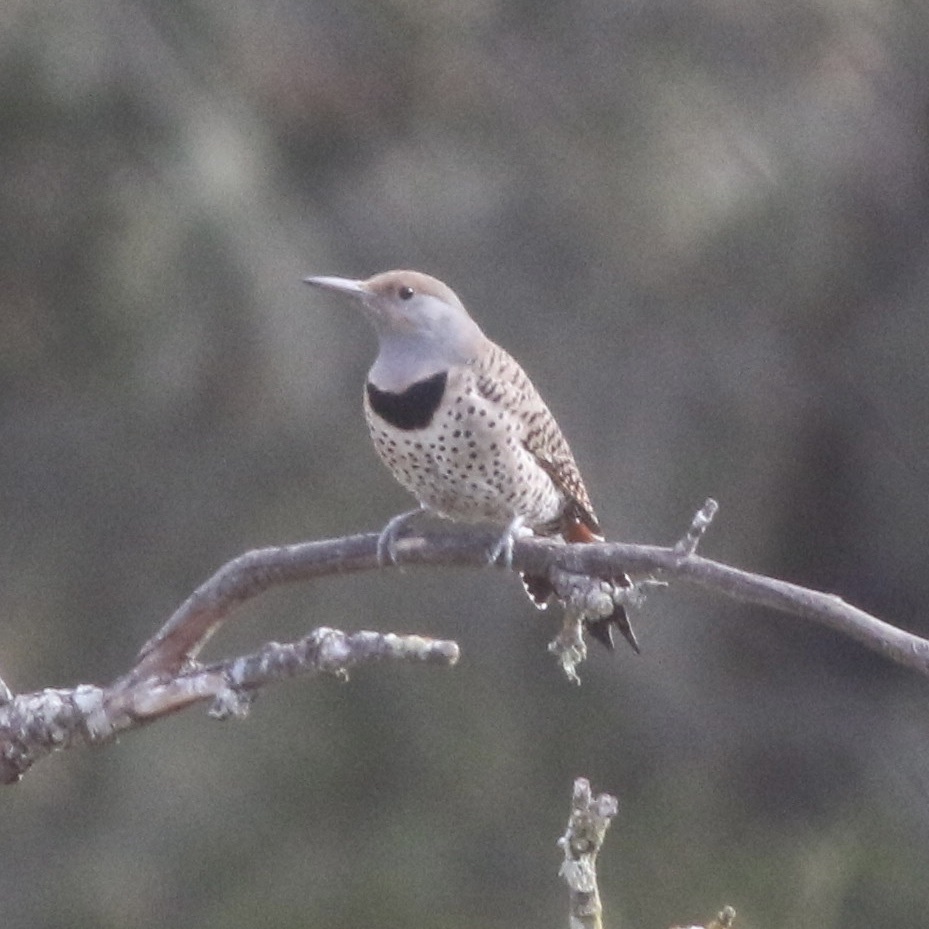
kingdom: Animalia
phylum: Chordata
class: Aves
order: Piciformes
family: Picidae
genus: Colaptes
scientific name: Colaptes auratus
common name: Northern flicker
